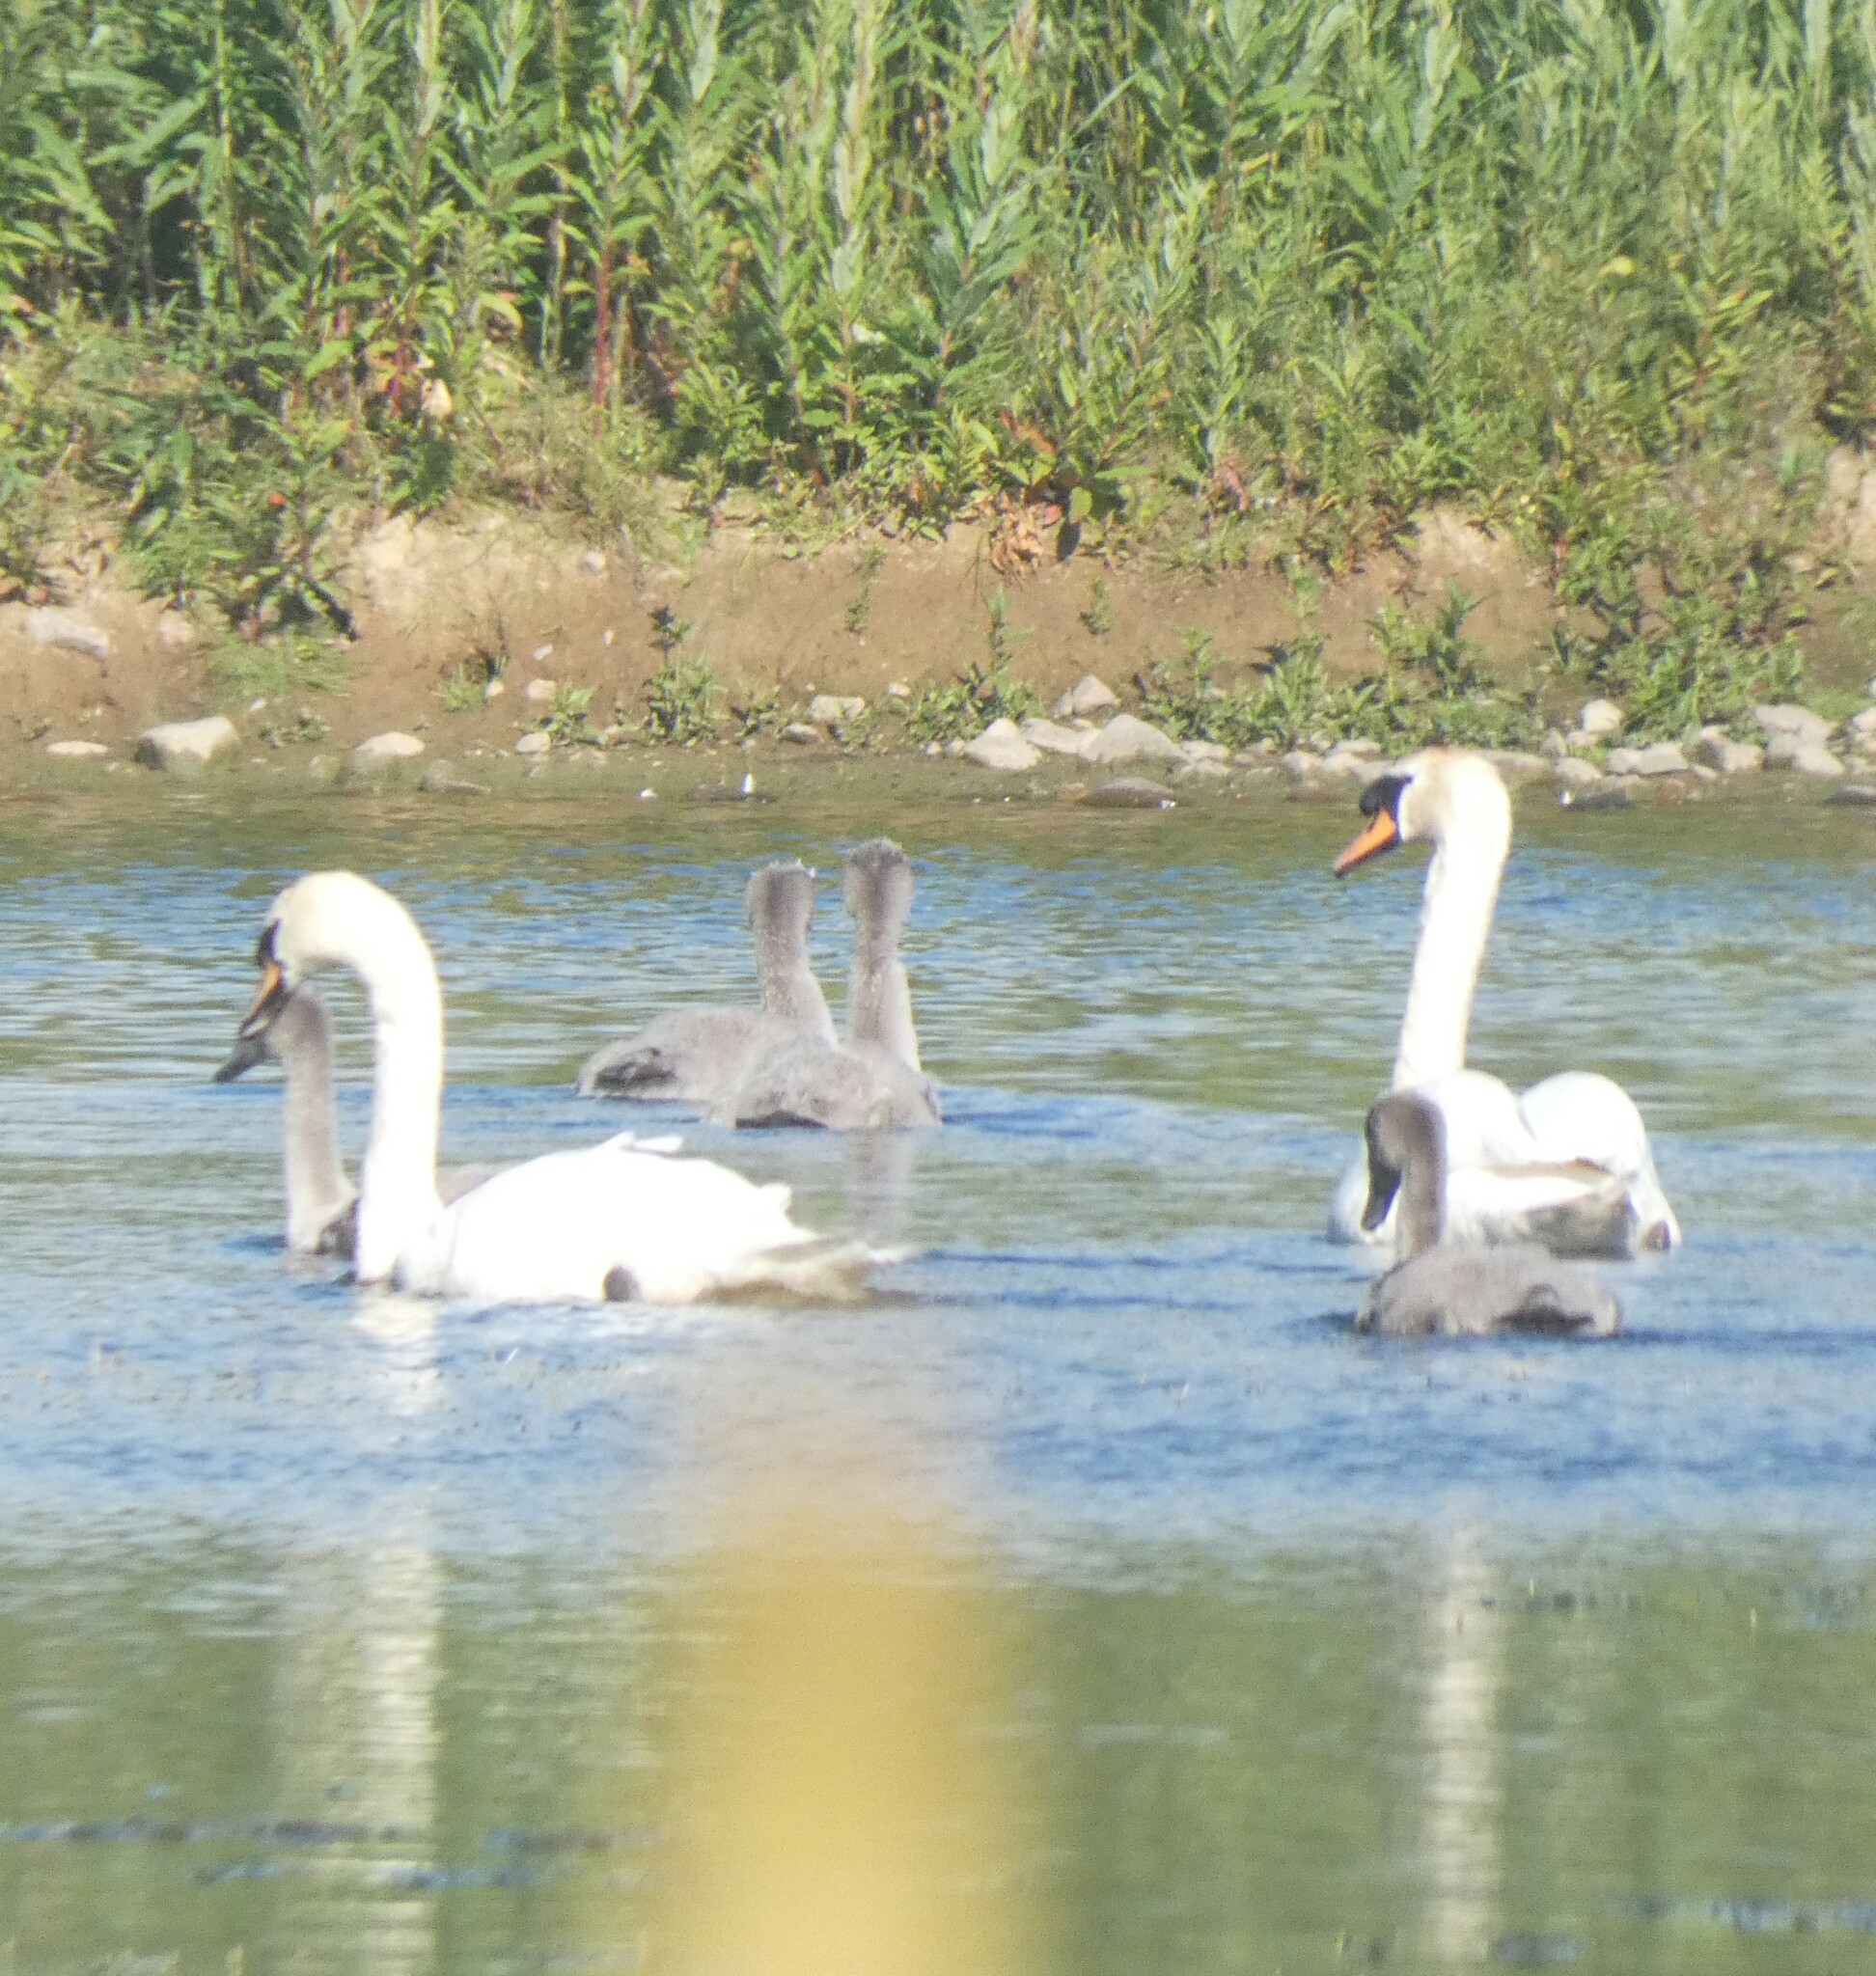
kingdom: Animalia
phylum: Chordata
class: Aves
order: Anseriformes
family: Anatidae
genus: Cygnus
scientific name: Cygnus olor
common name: Mute swan
